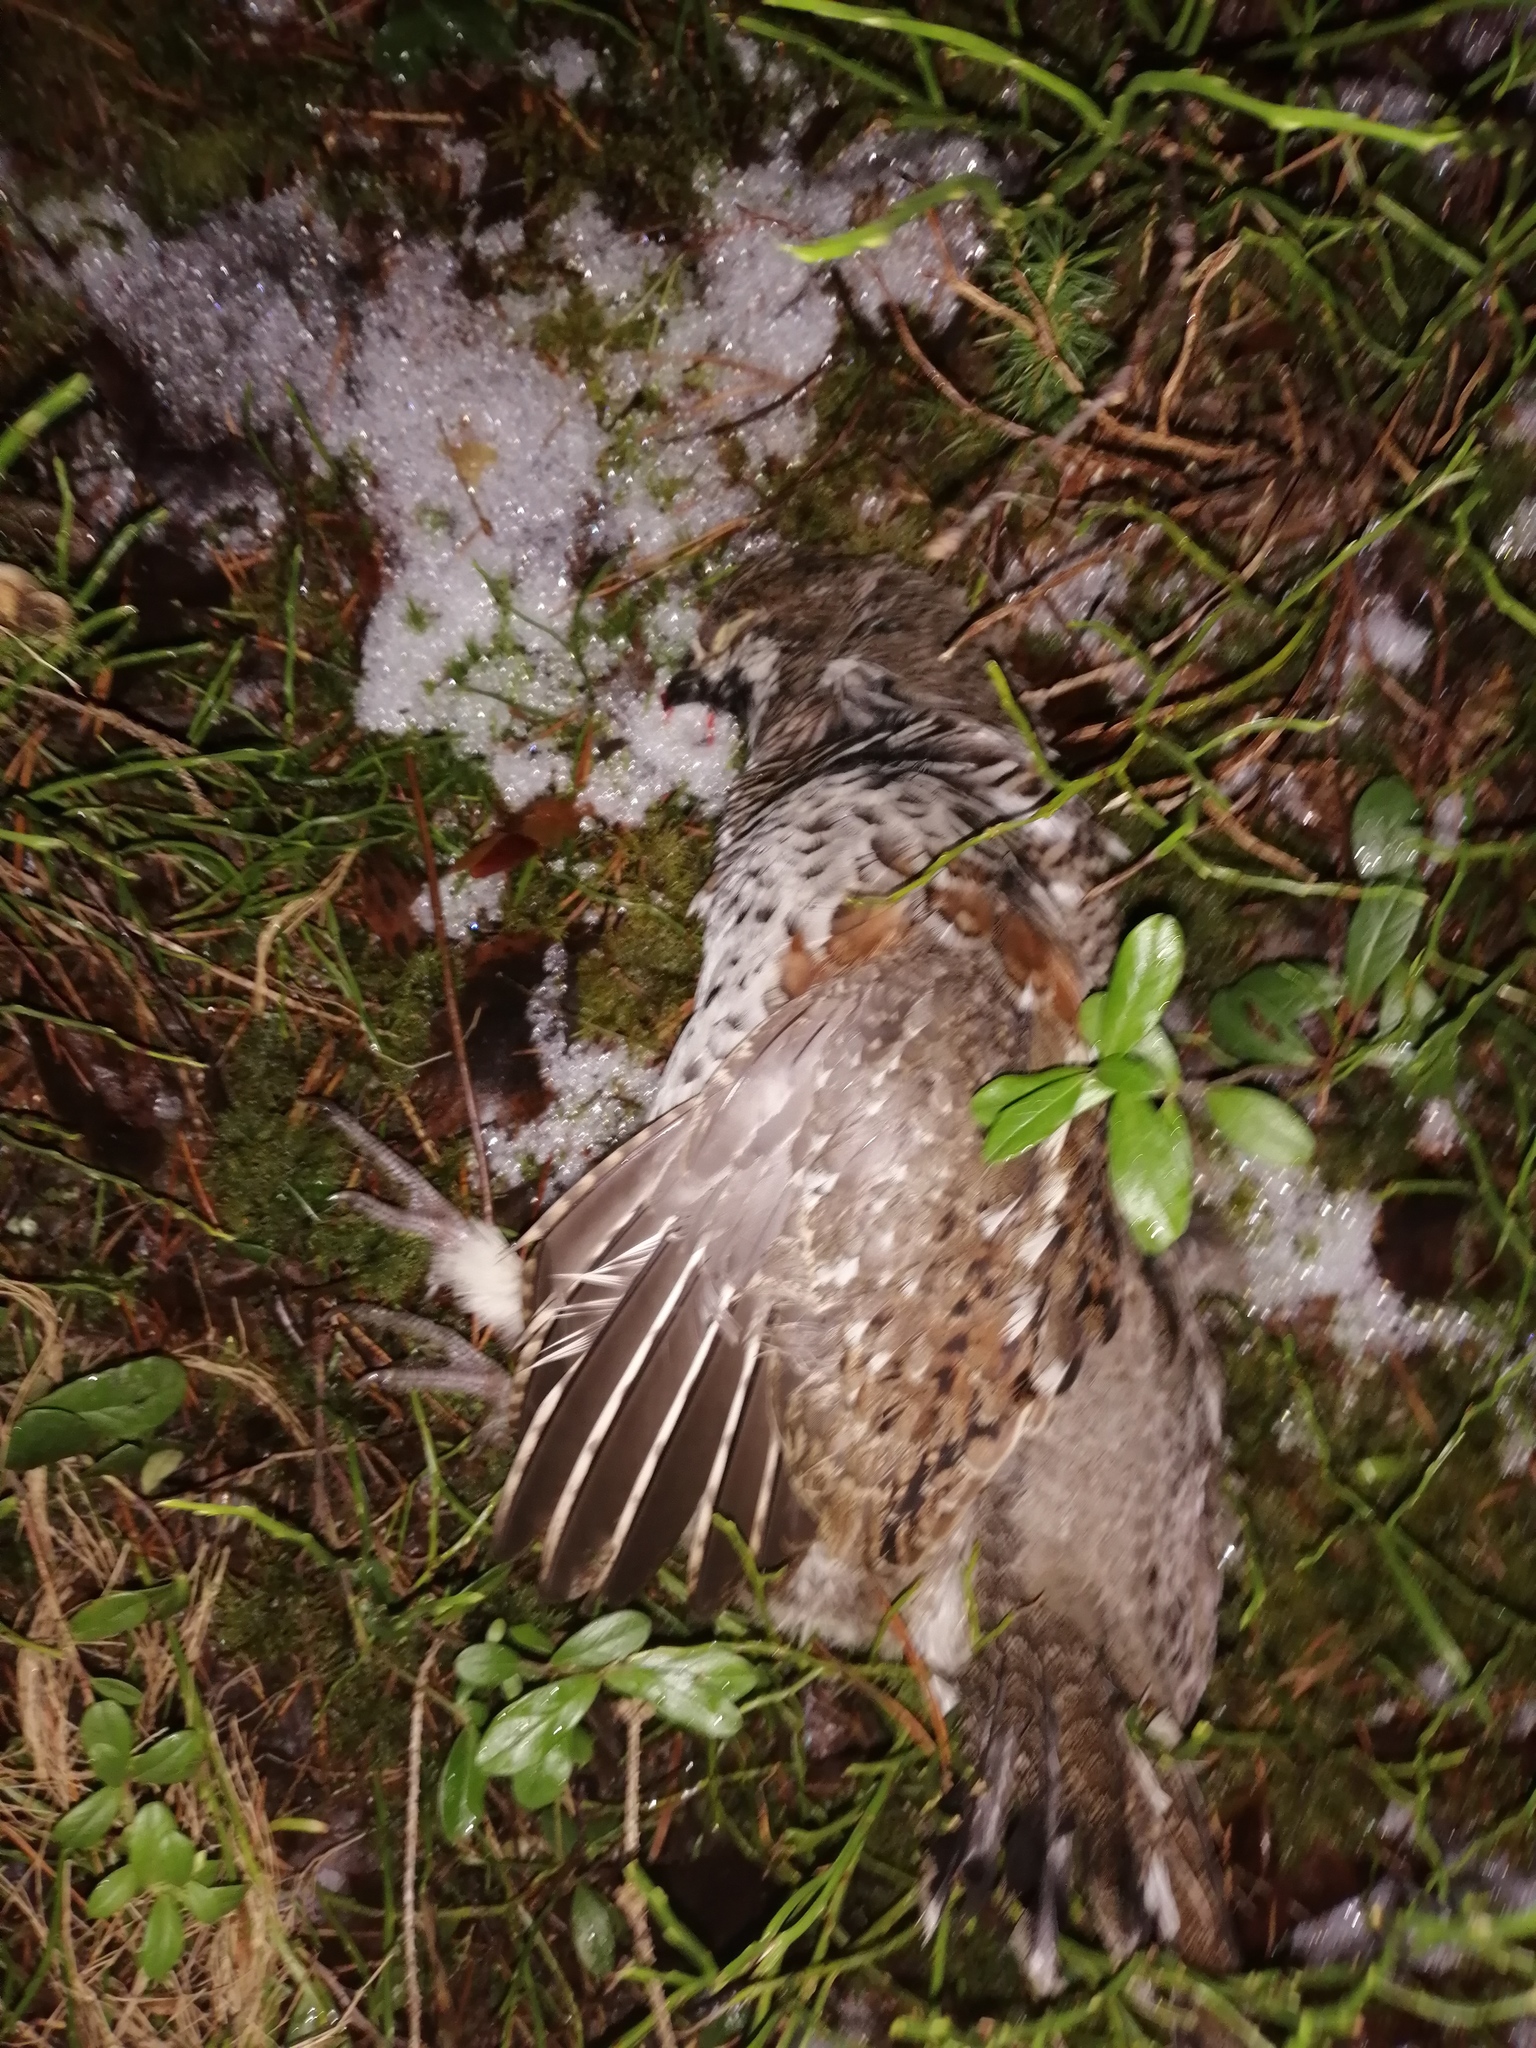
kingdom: Animalia
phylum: Chordata
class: Aves
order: Galliformes
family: Phasianidae
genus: Tetrastes
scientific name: Tetrastes bonasia
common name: Hazel grouse
